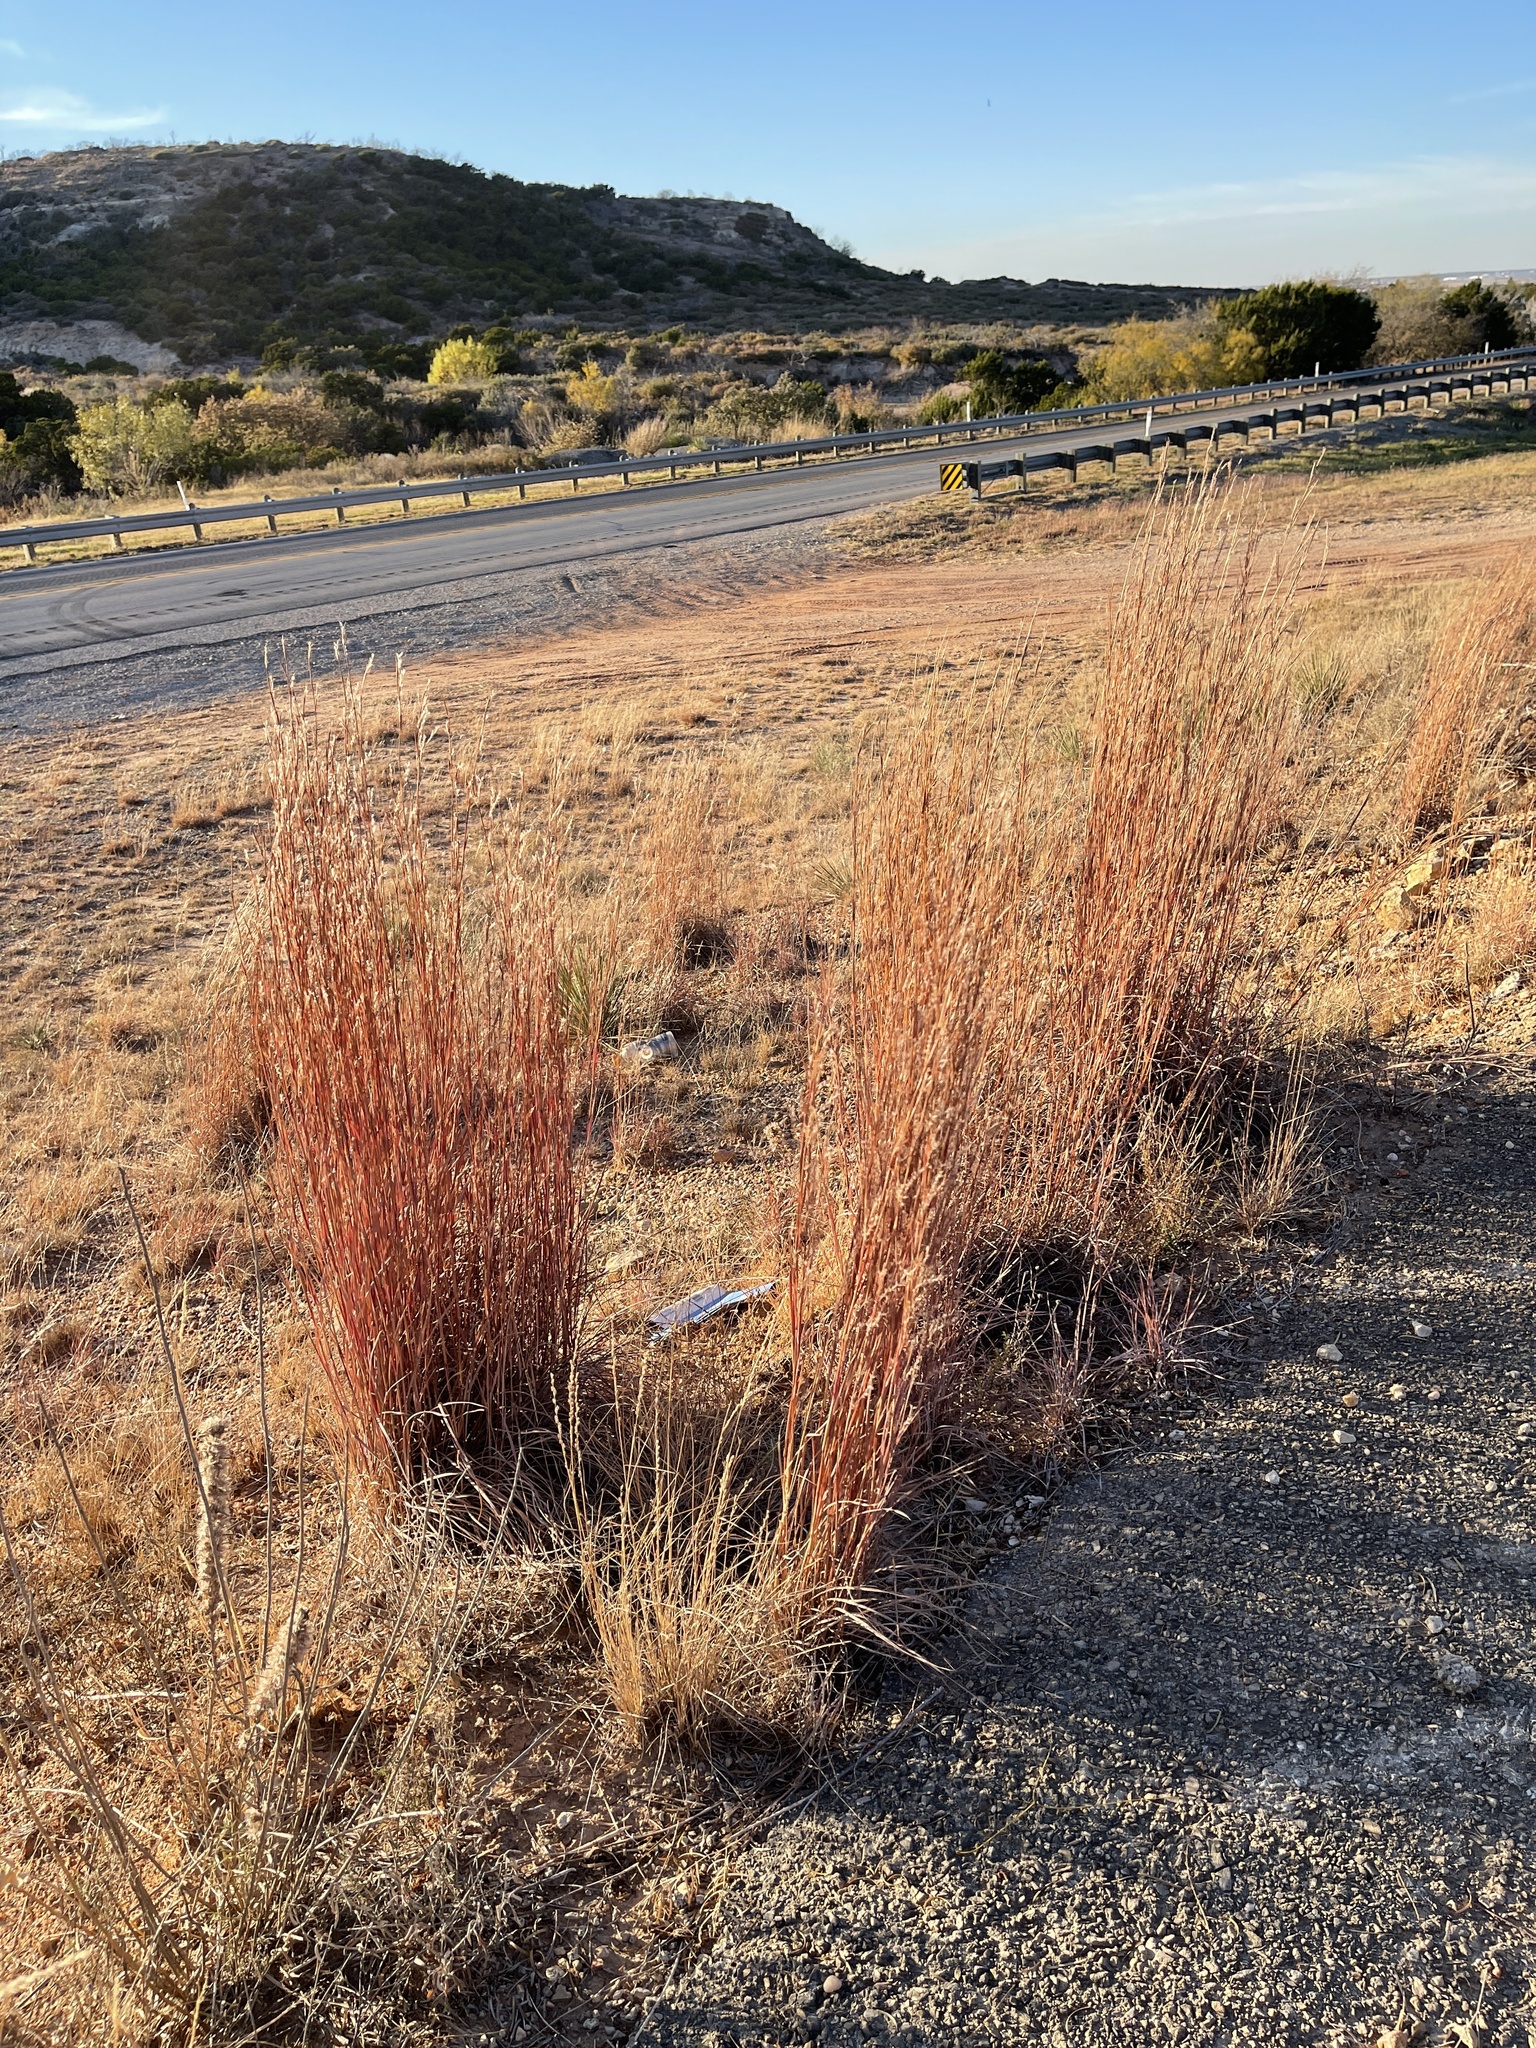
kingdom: Plantae
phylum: Tracheophyta
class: Liliopsida
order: Poales
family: Poaceae
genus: Schizachyrium
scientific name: Schizachyrium scoparium
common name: Little bluestem
